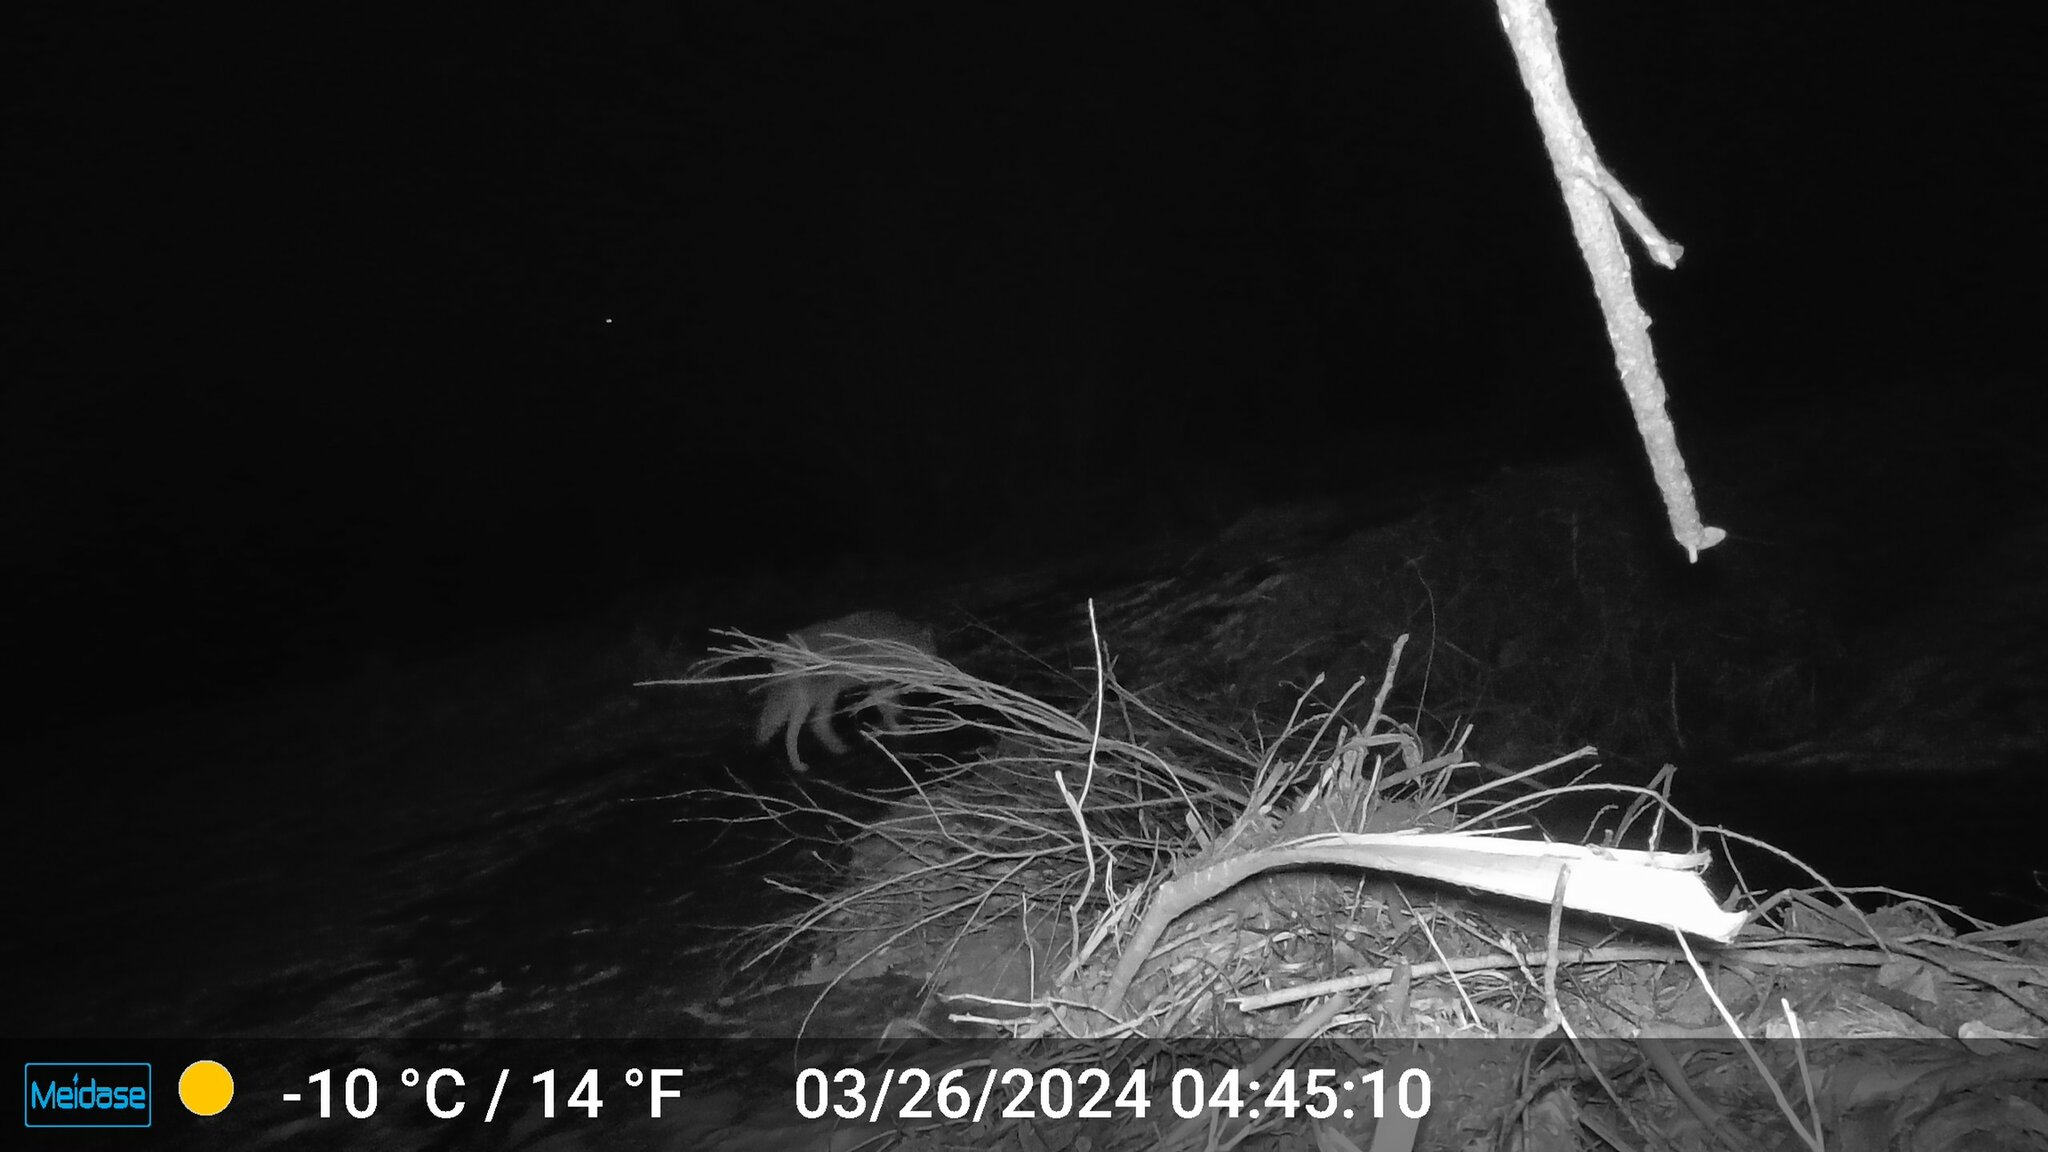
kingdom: Animalia
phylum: Chordata
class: Mammalia
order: Carnivora
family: Canidae
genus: Canis
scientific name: Canis latrans
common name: Coyote
